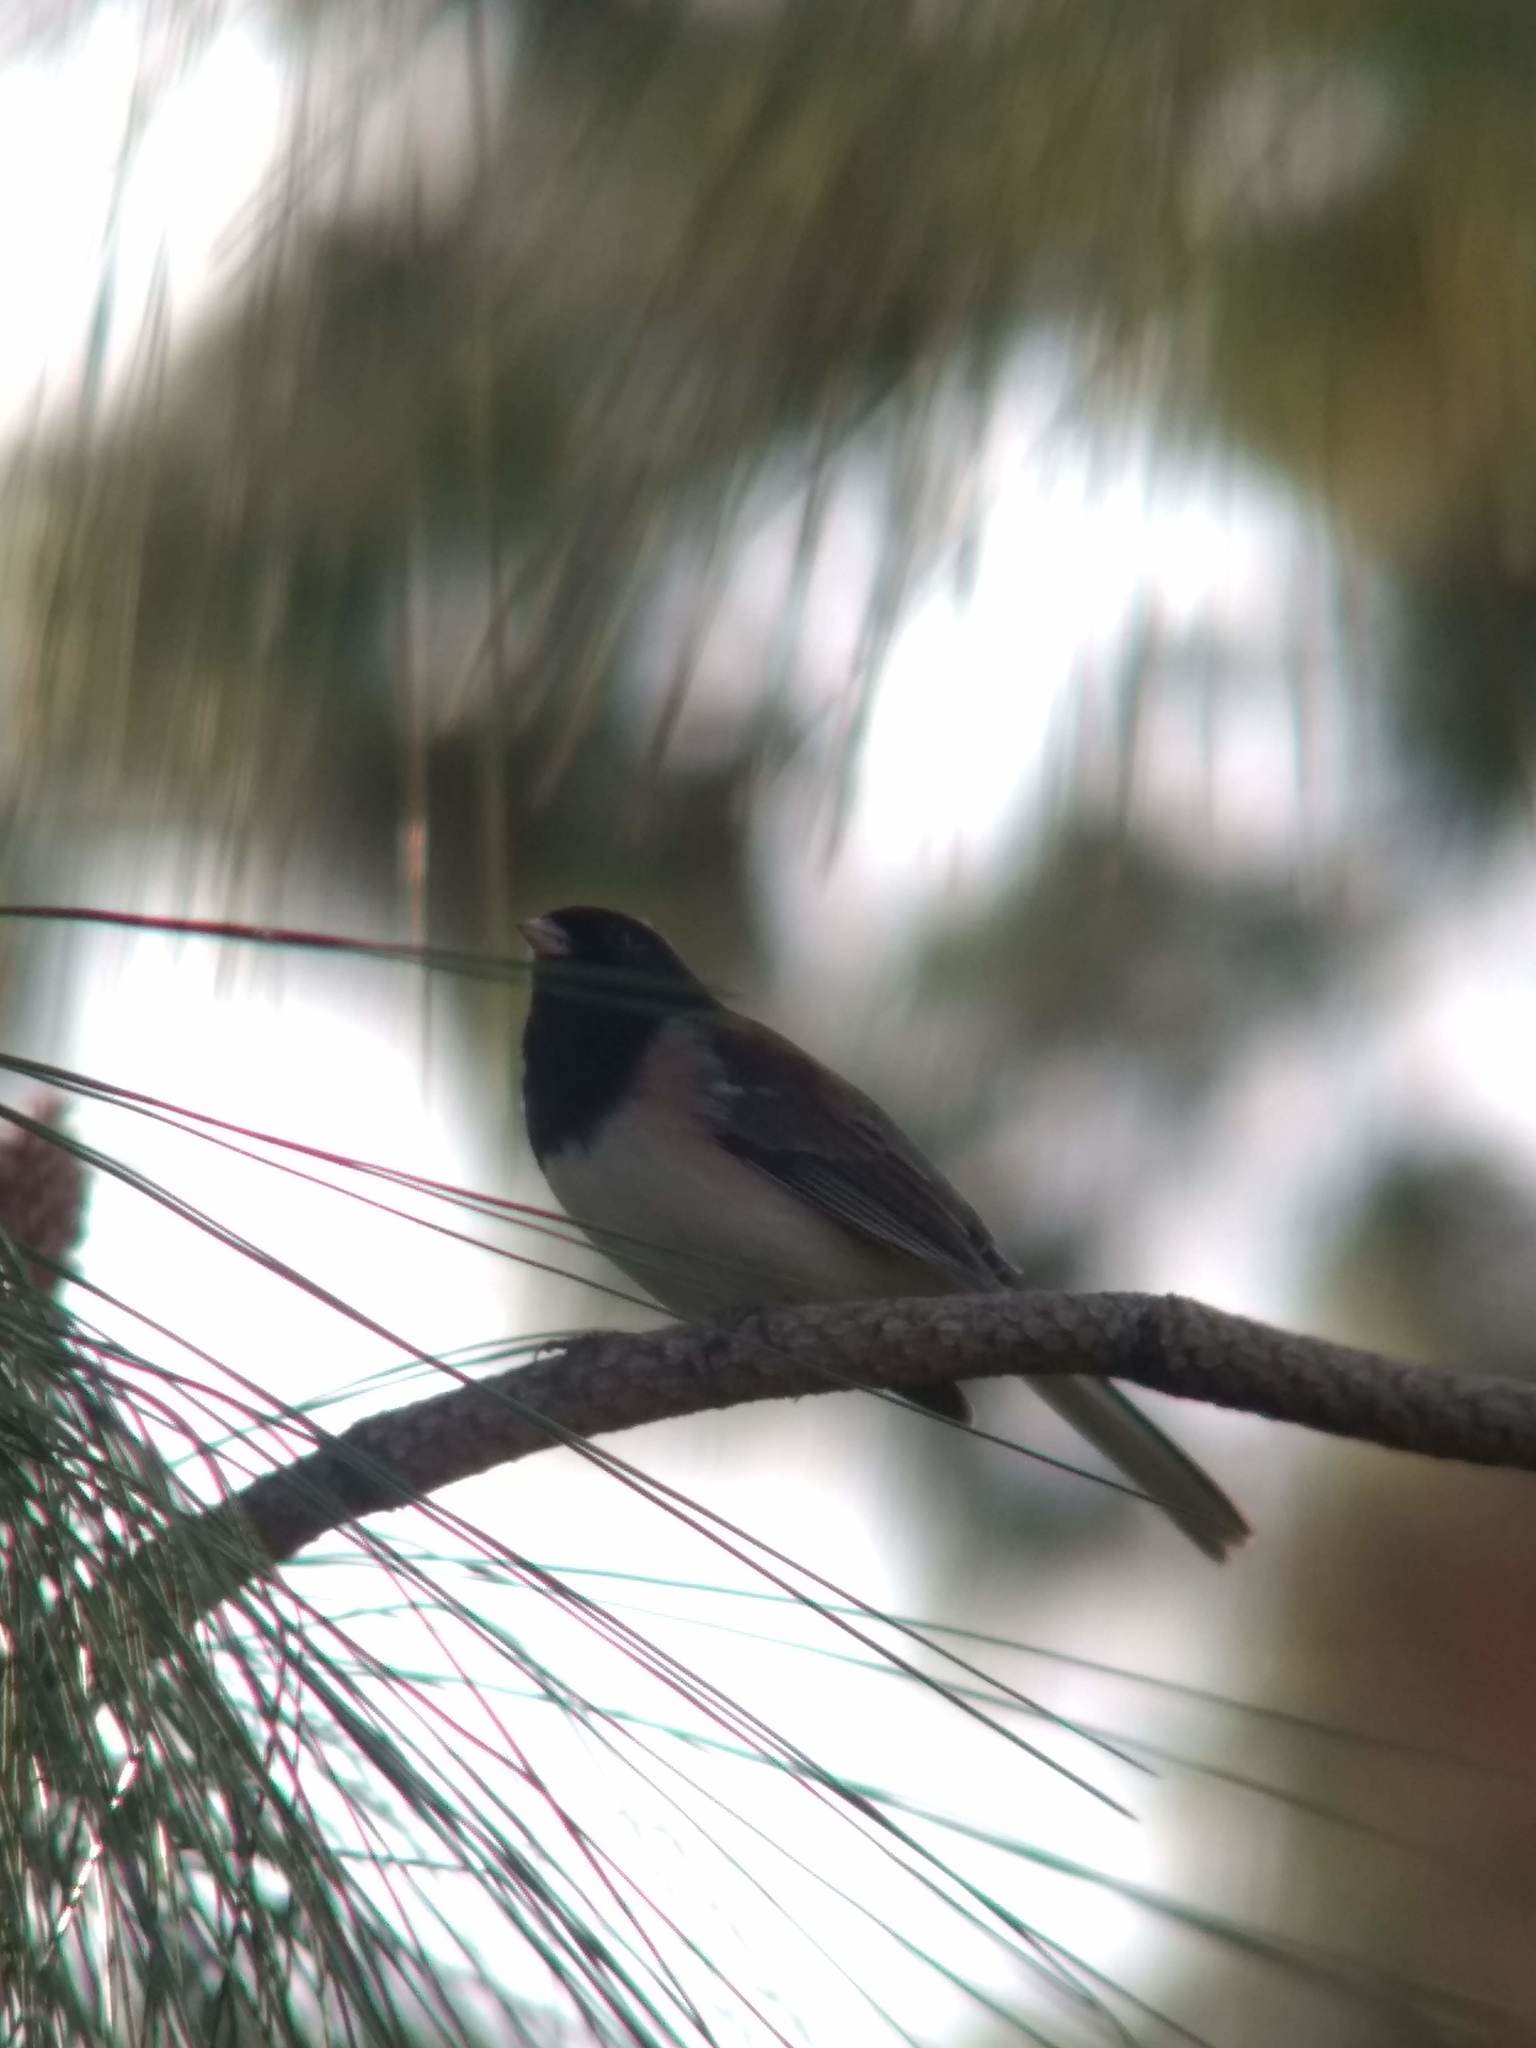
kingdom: Animalia
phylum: Chordata
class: Aves
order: Passeriformes
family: Passerellidae
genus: Junco
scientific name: Junco hyemalis
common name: Dark-eyed junco
